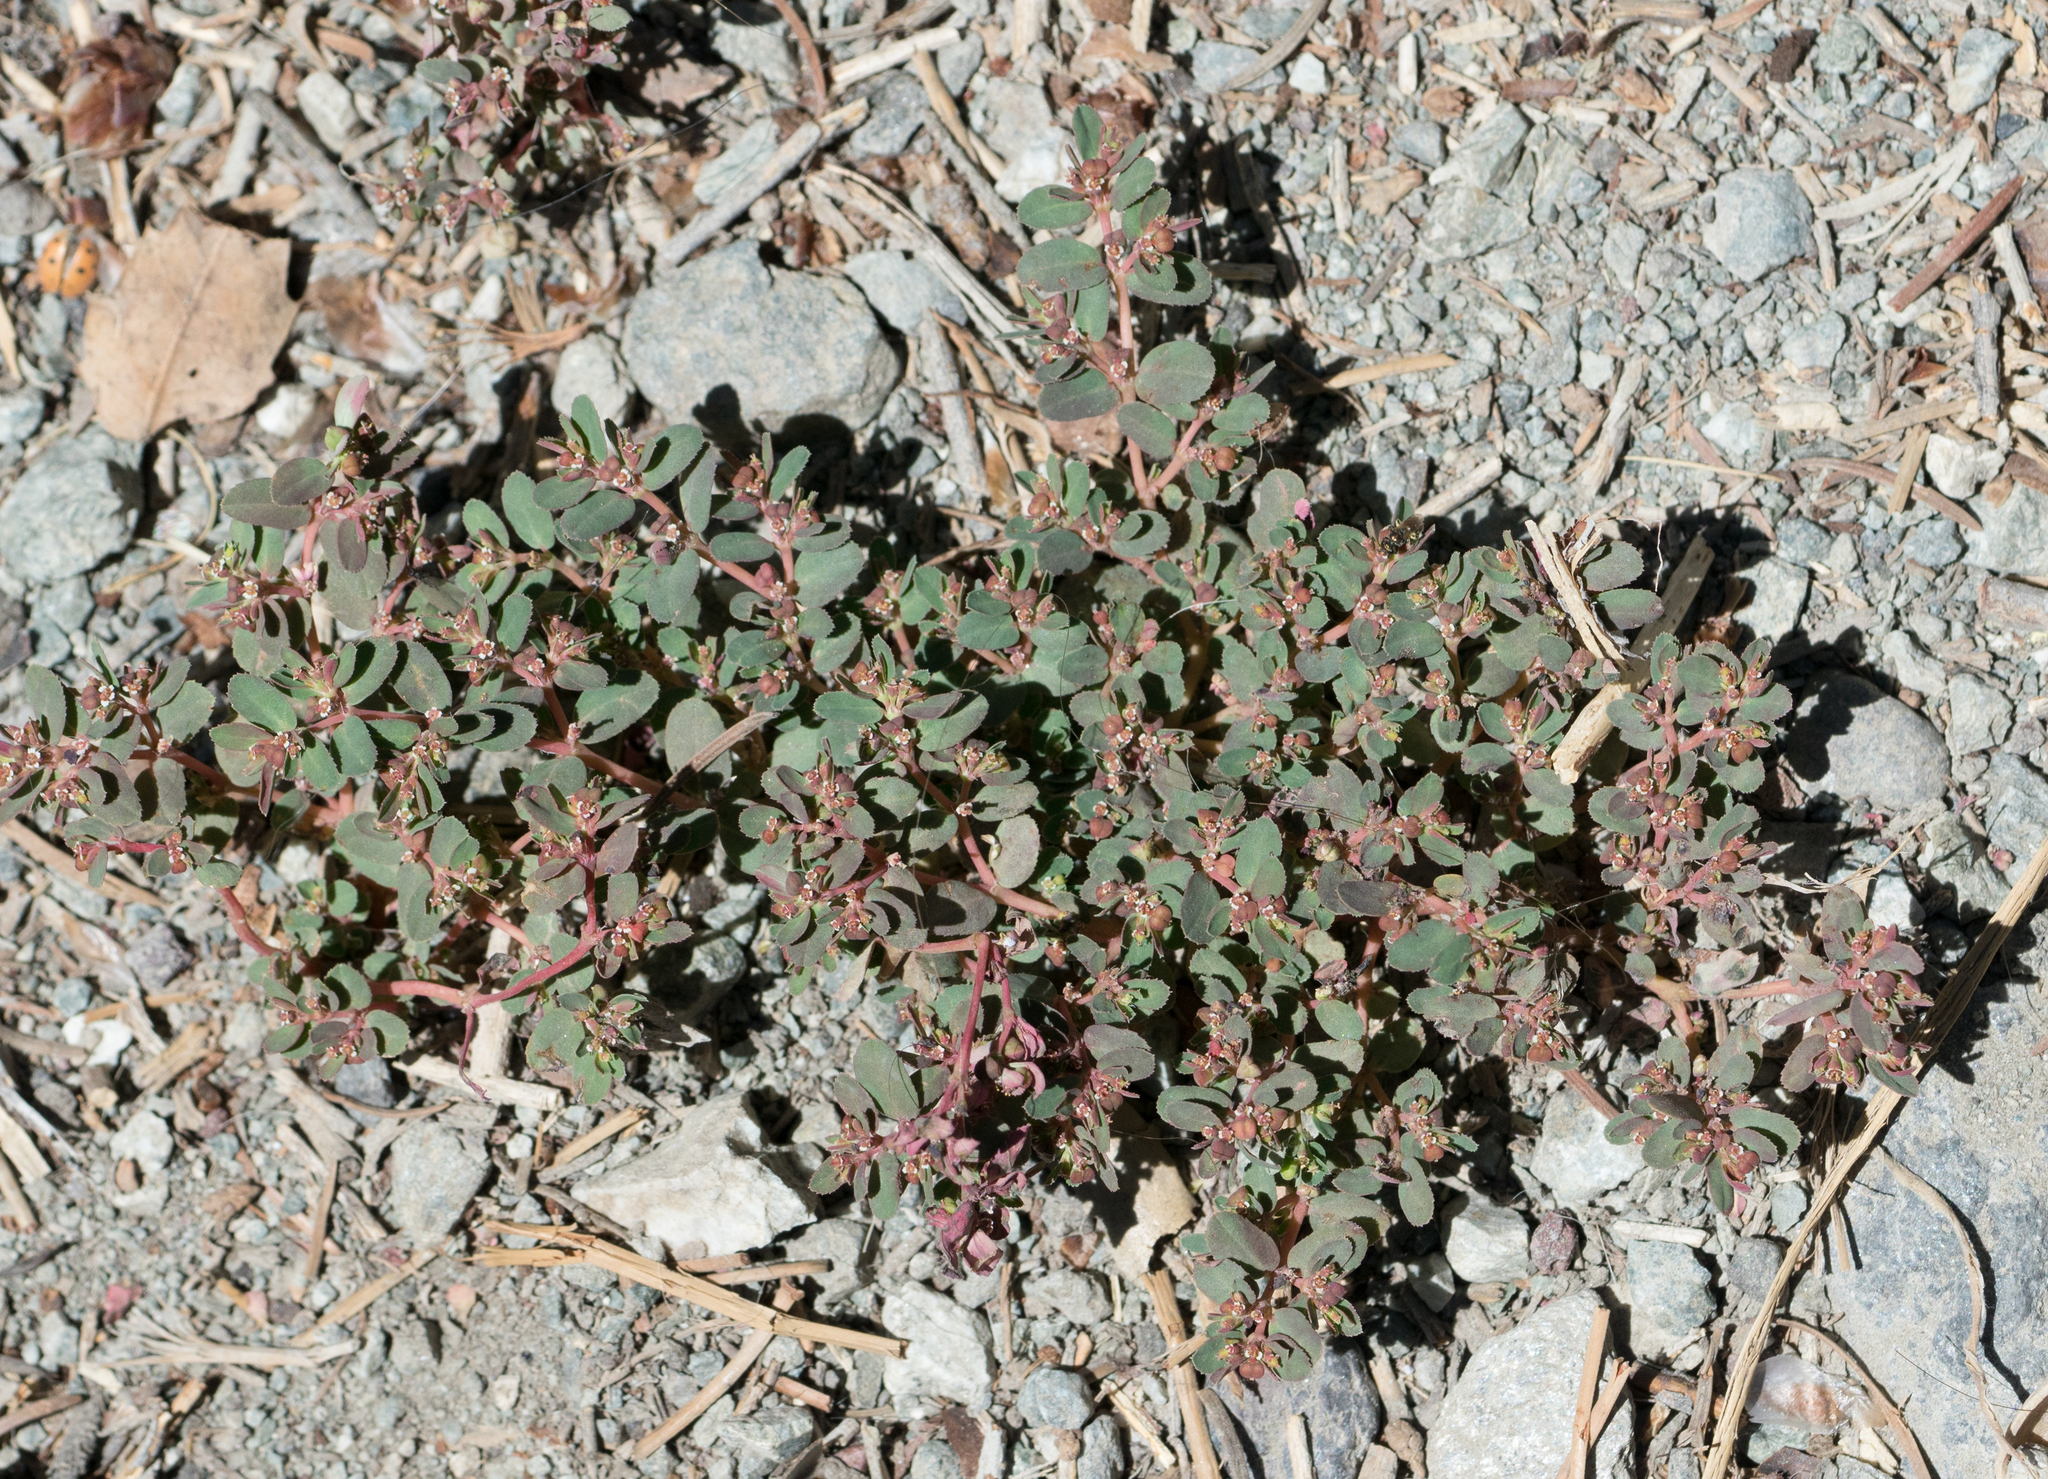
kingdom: Plantae
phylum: Tracheophyta
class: Magnoliopsida
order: Malpighiales
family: Euphorbiaceae
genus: Euphorbia
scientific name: Euphorbia serpillifolia
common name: Thyme-leaf spurge
